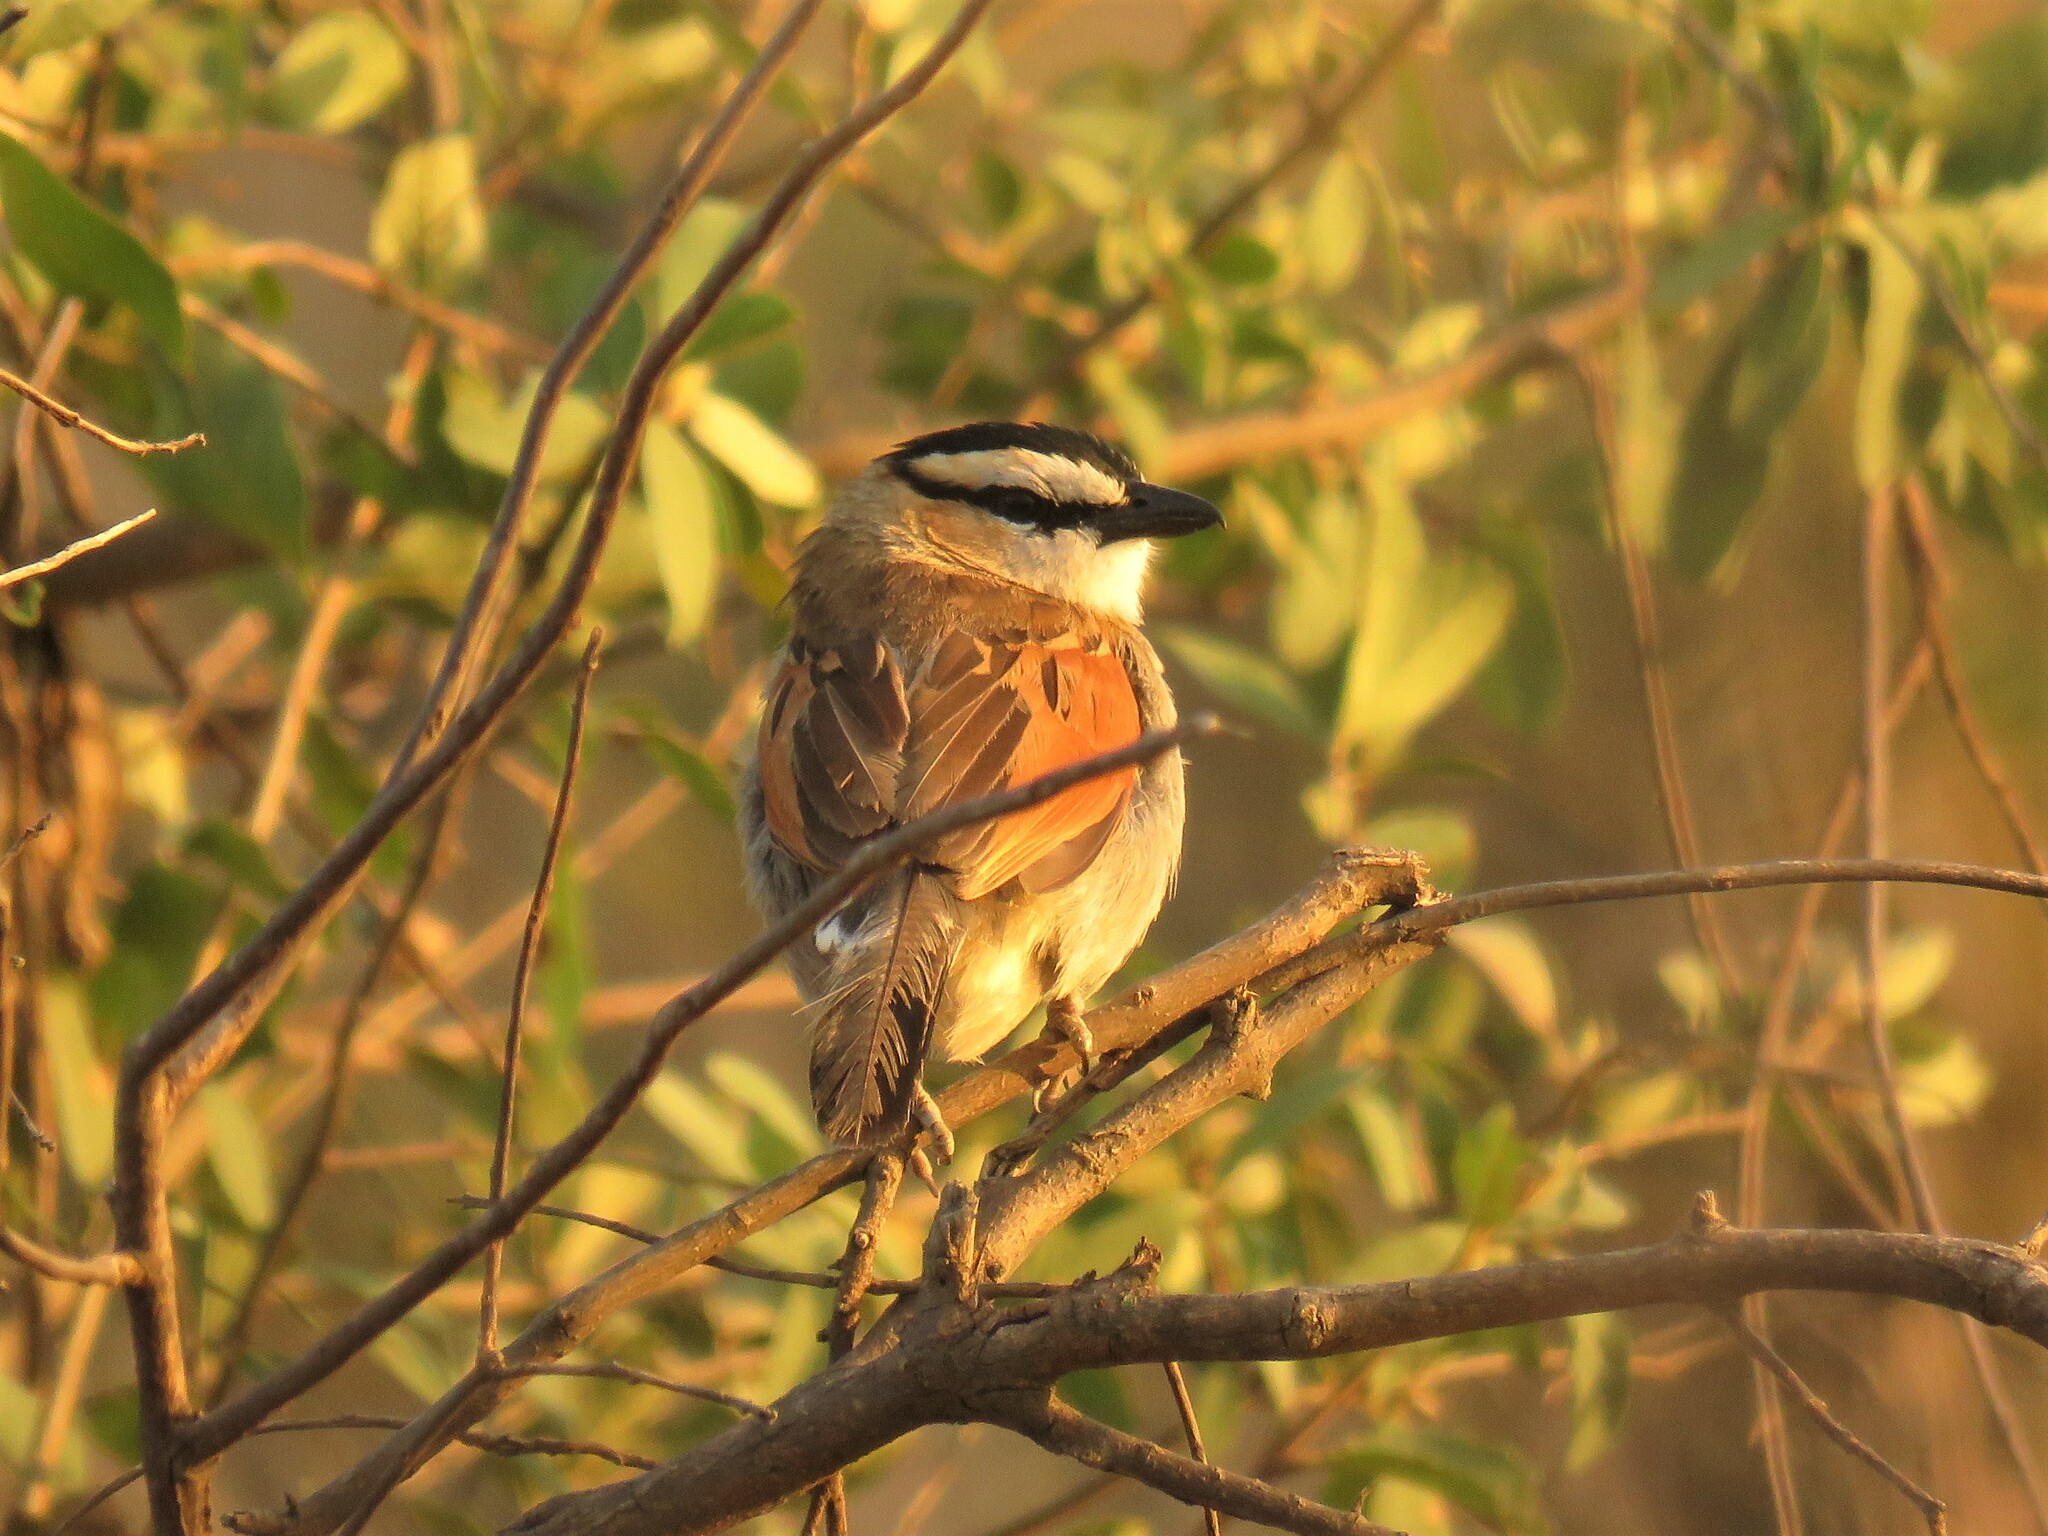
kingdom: Animalia
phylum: Chordata
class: Aves
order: Passeriformes
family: Malaconotidae
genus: Tchagra
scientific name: Tchagra senegalus
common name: Black-crowned tchagra
